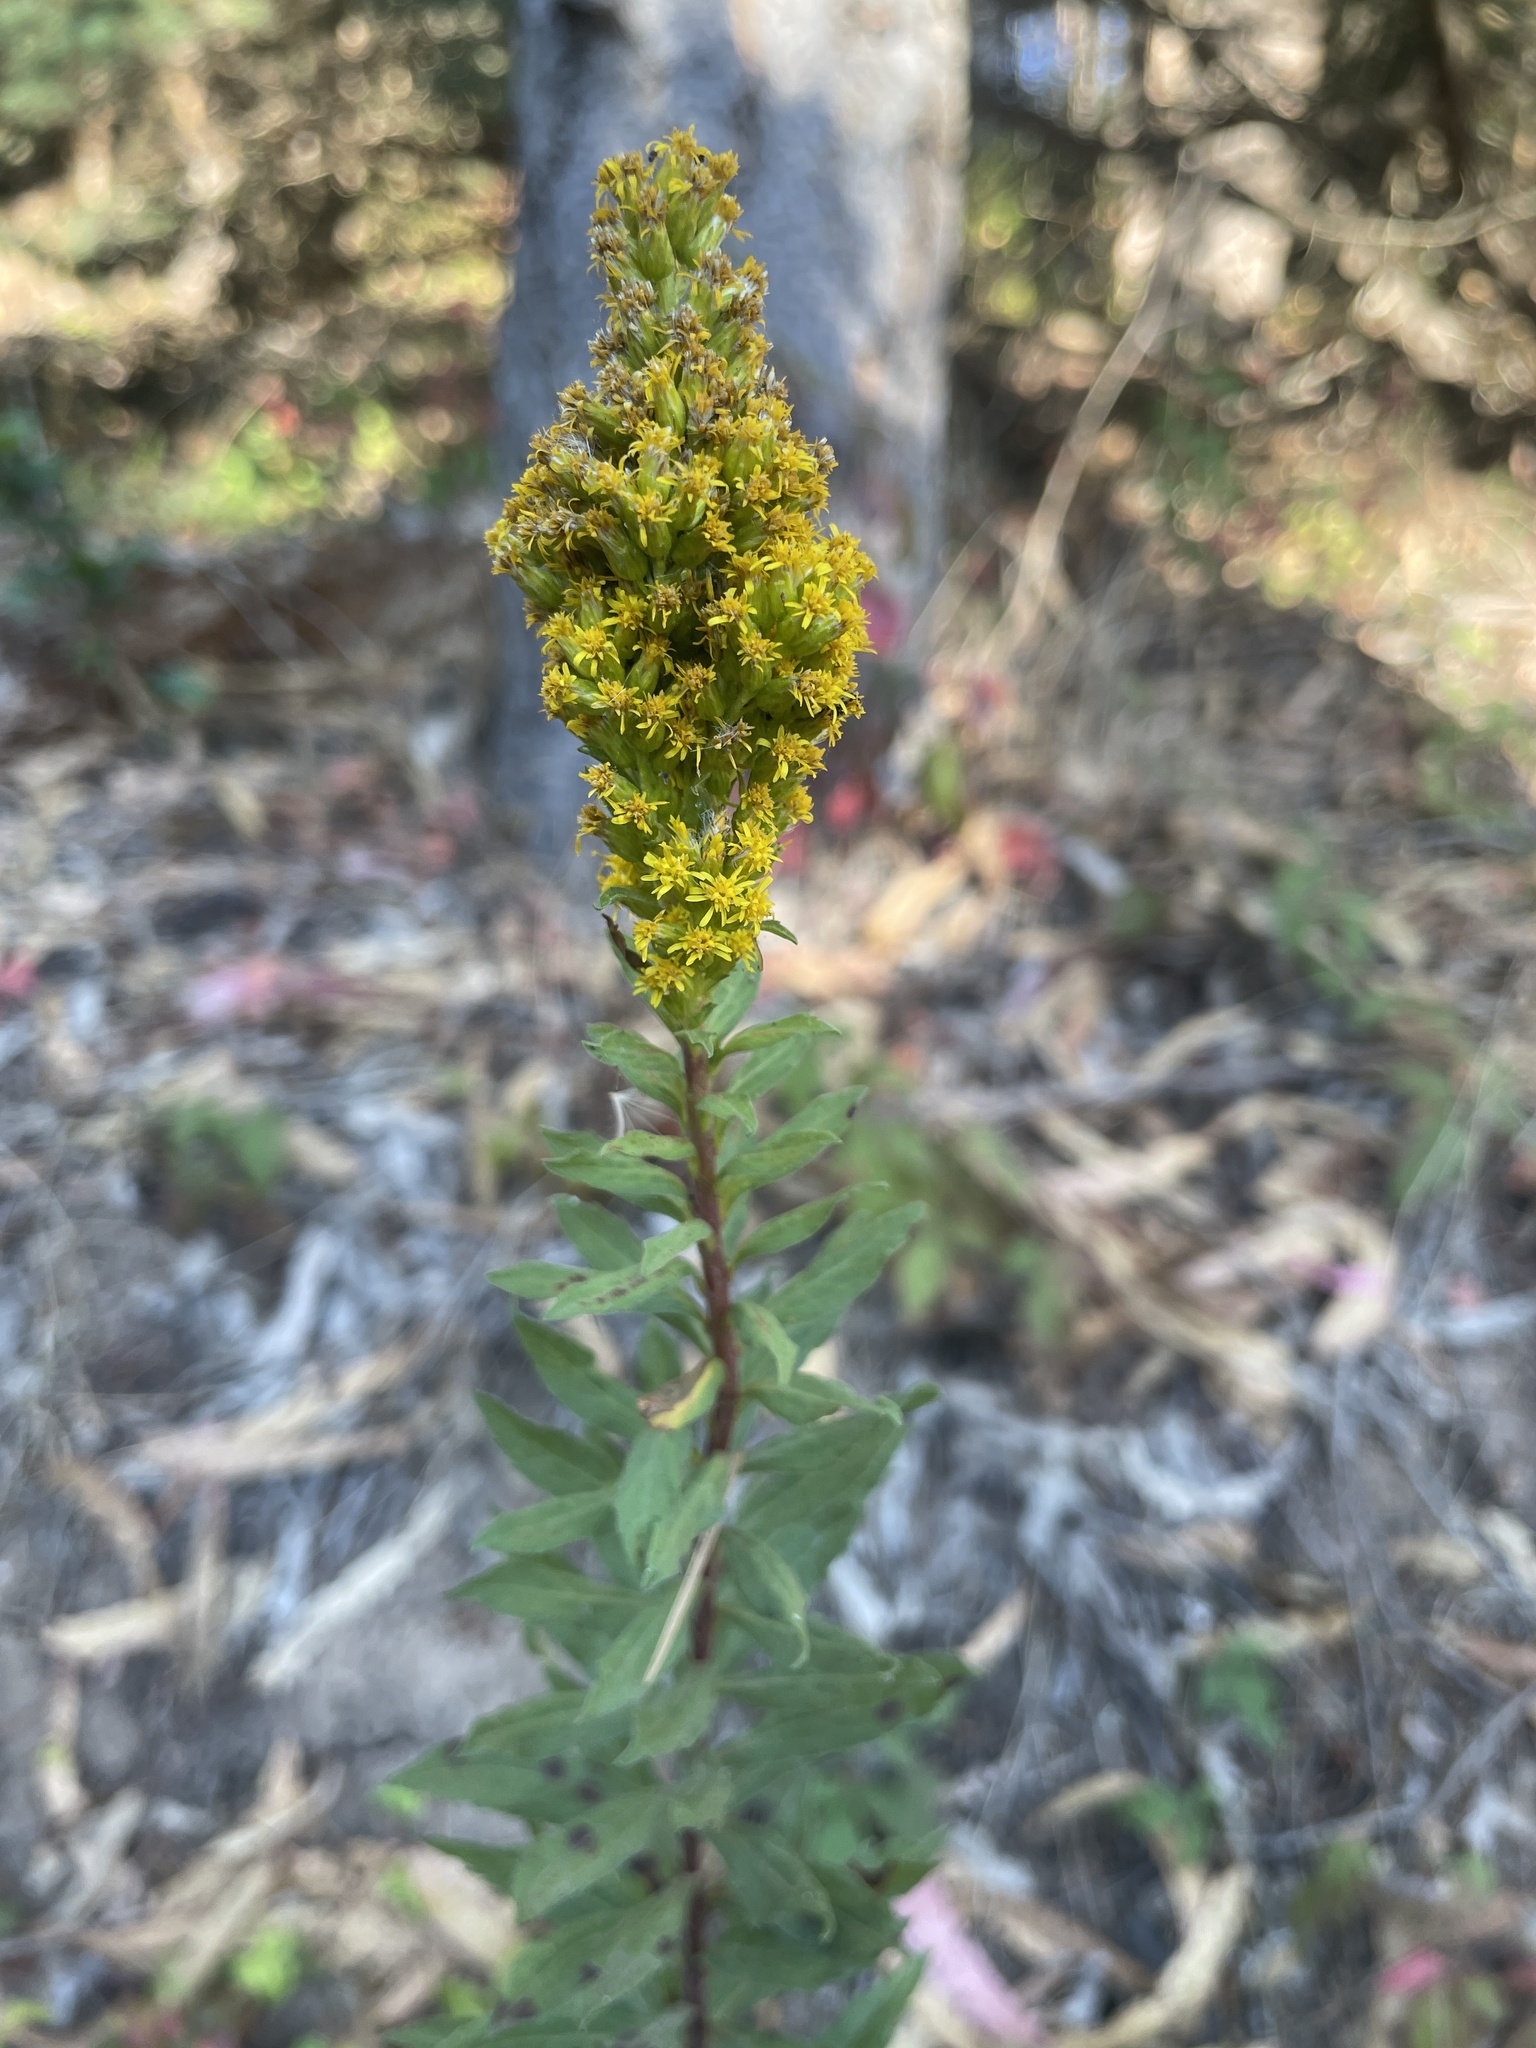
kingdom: Plantae
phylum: Tracheophyta
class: Magnoliopsida
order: Asterales
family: Asteraceae
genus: Solidago
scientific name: Solidago elongata
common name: Cascade canada goldenrod
